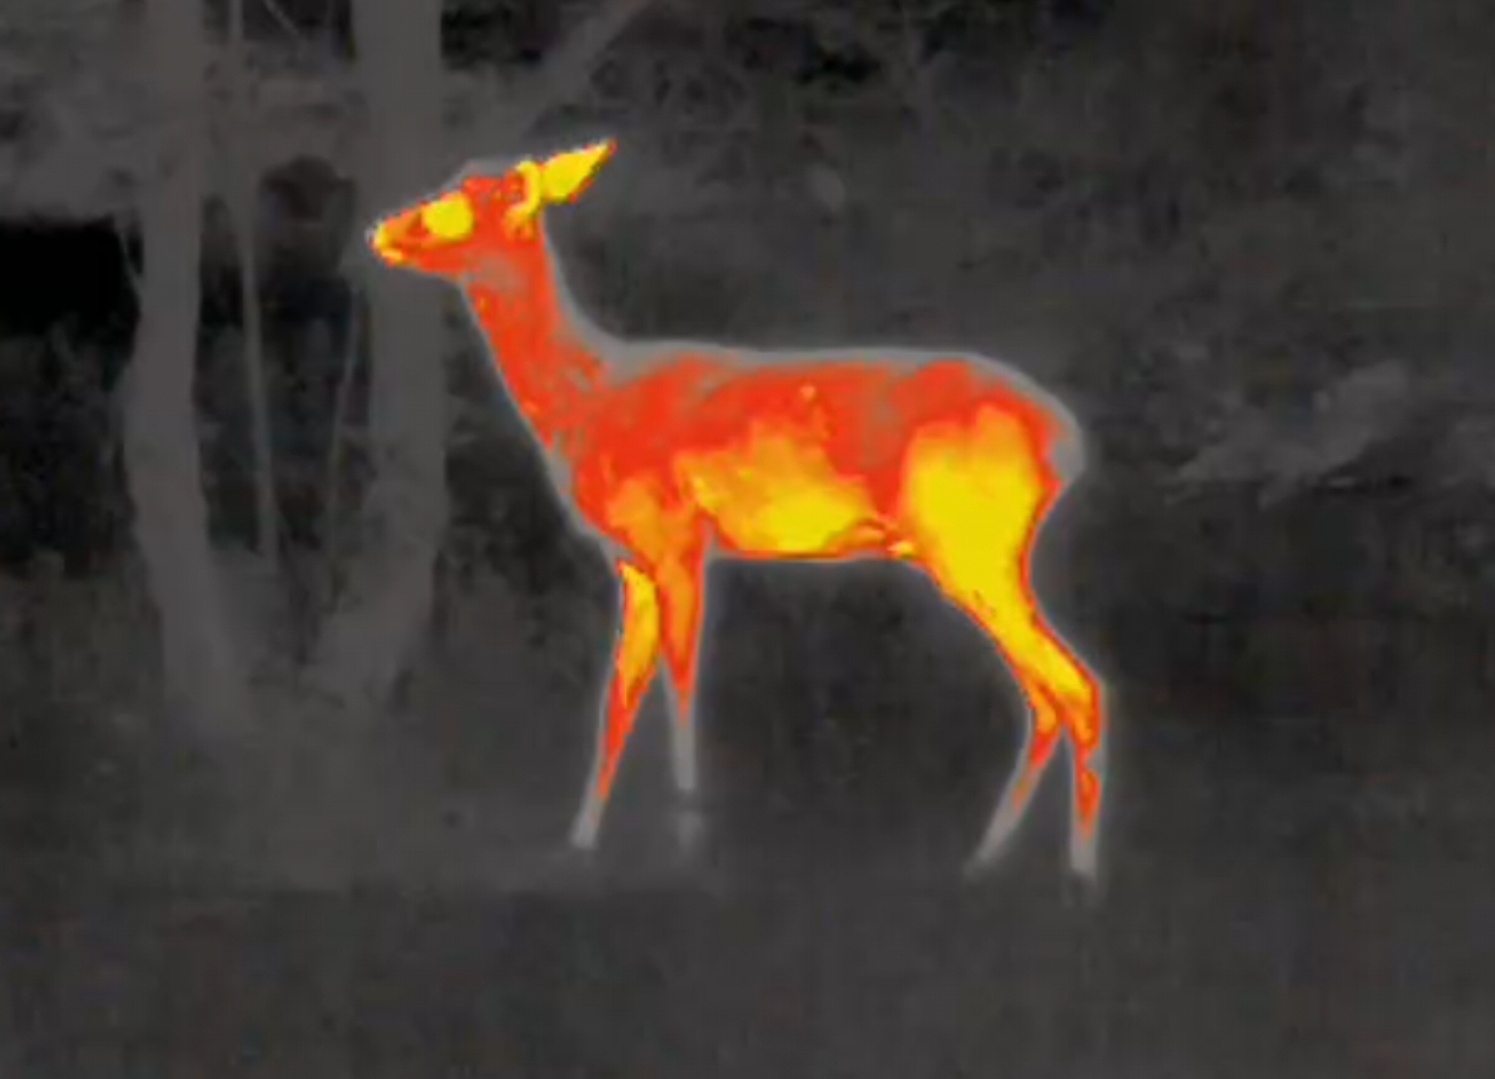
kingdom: Animalia
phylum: Chordata
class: Mammalia
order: Artiodactyla
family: Cervidae
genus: Capreolus
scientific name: Capreolus capreolus
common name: Western roe deer
